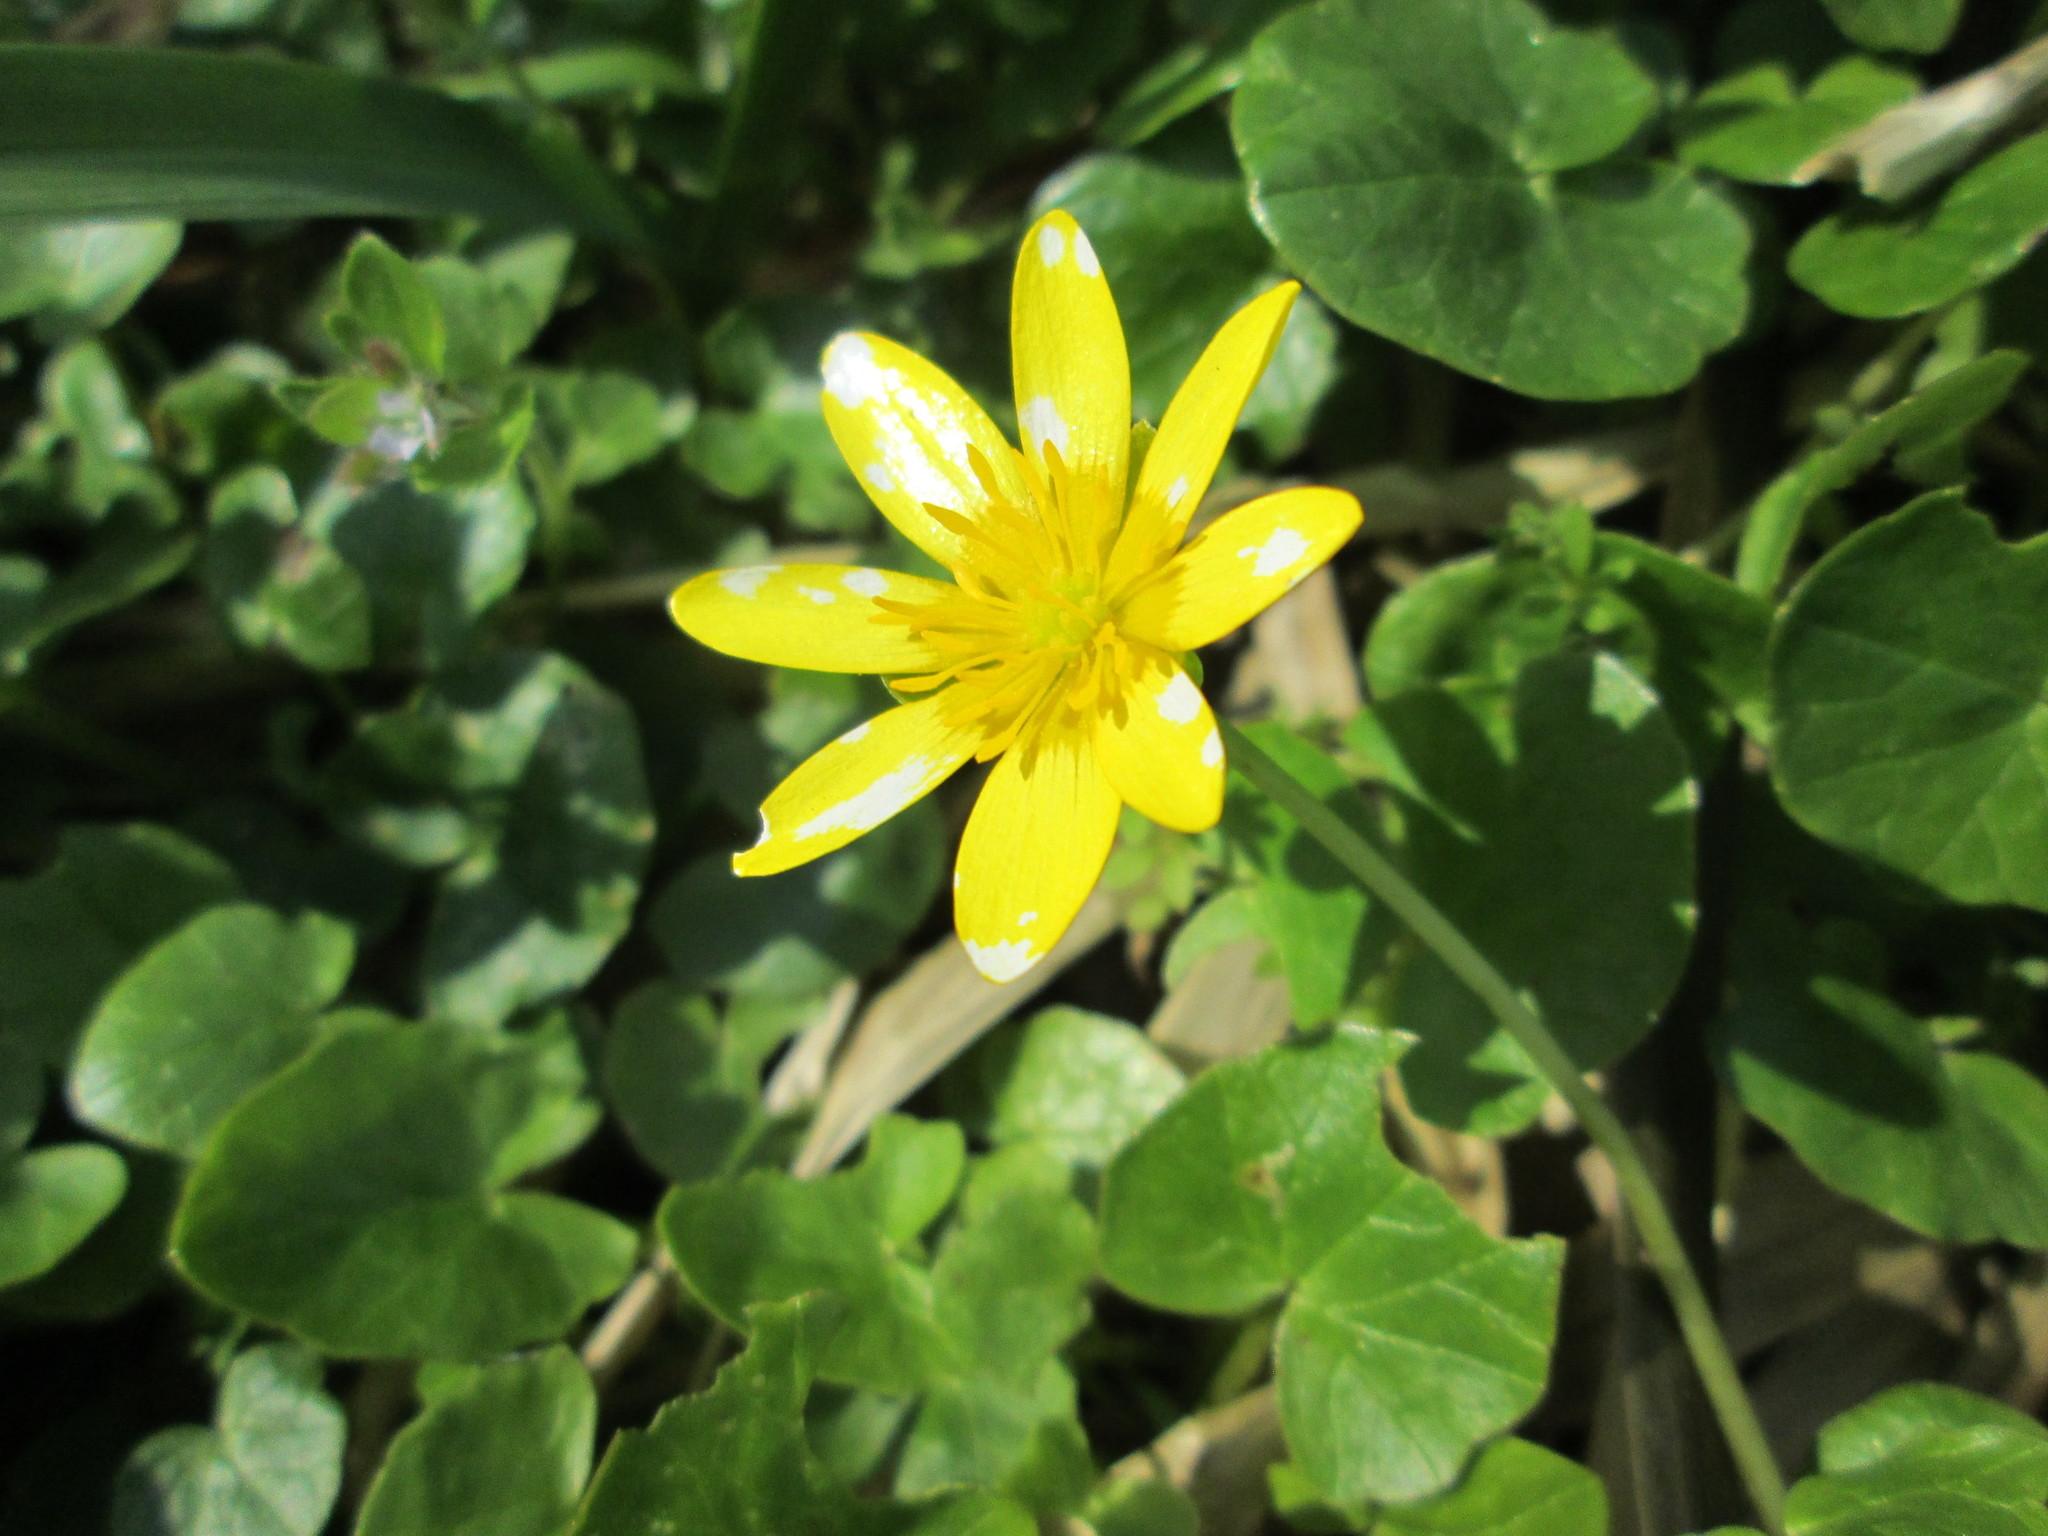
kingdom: Plantae
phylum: Tracheophyta
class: Magnoliopsida
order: Ranunculales
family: Ranunculaceae
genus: Ficaria
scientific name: Ficaria verna
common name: Lesser celandine
